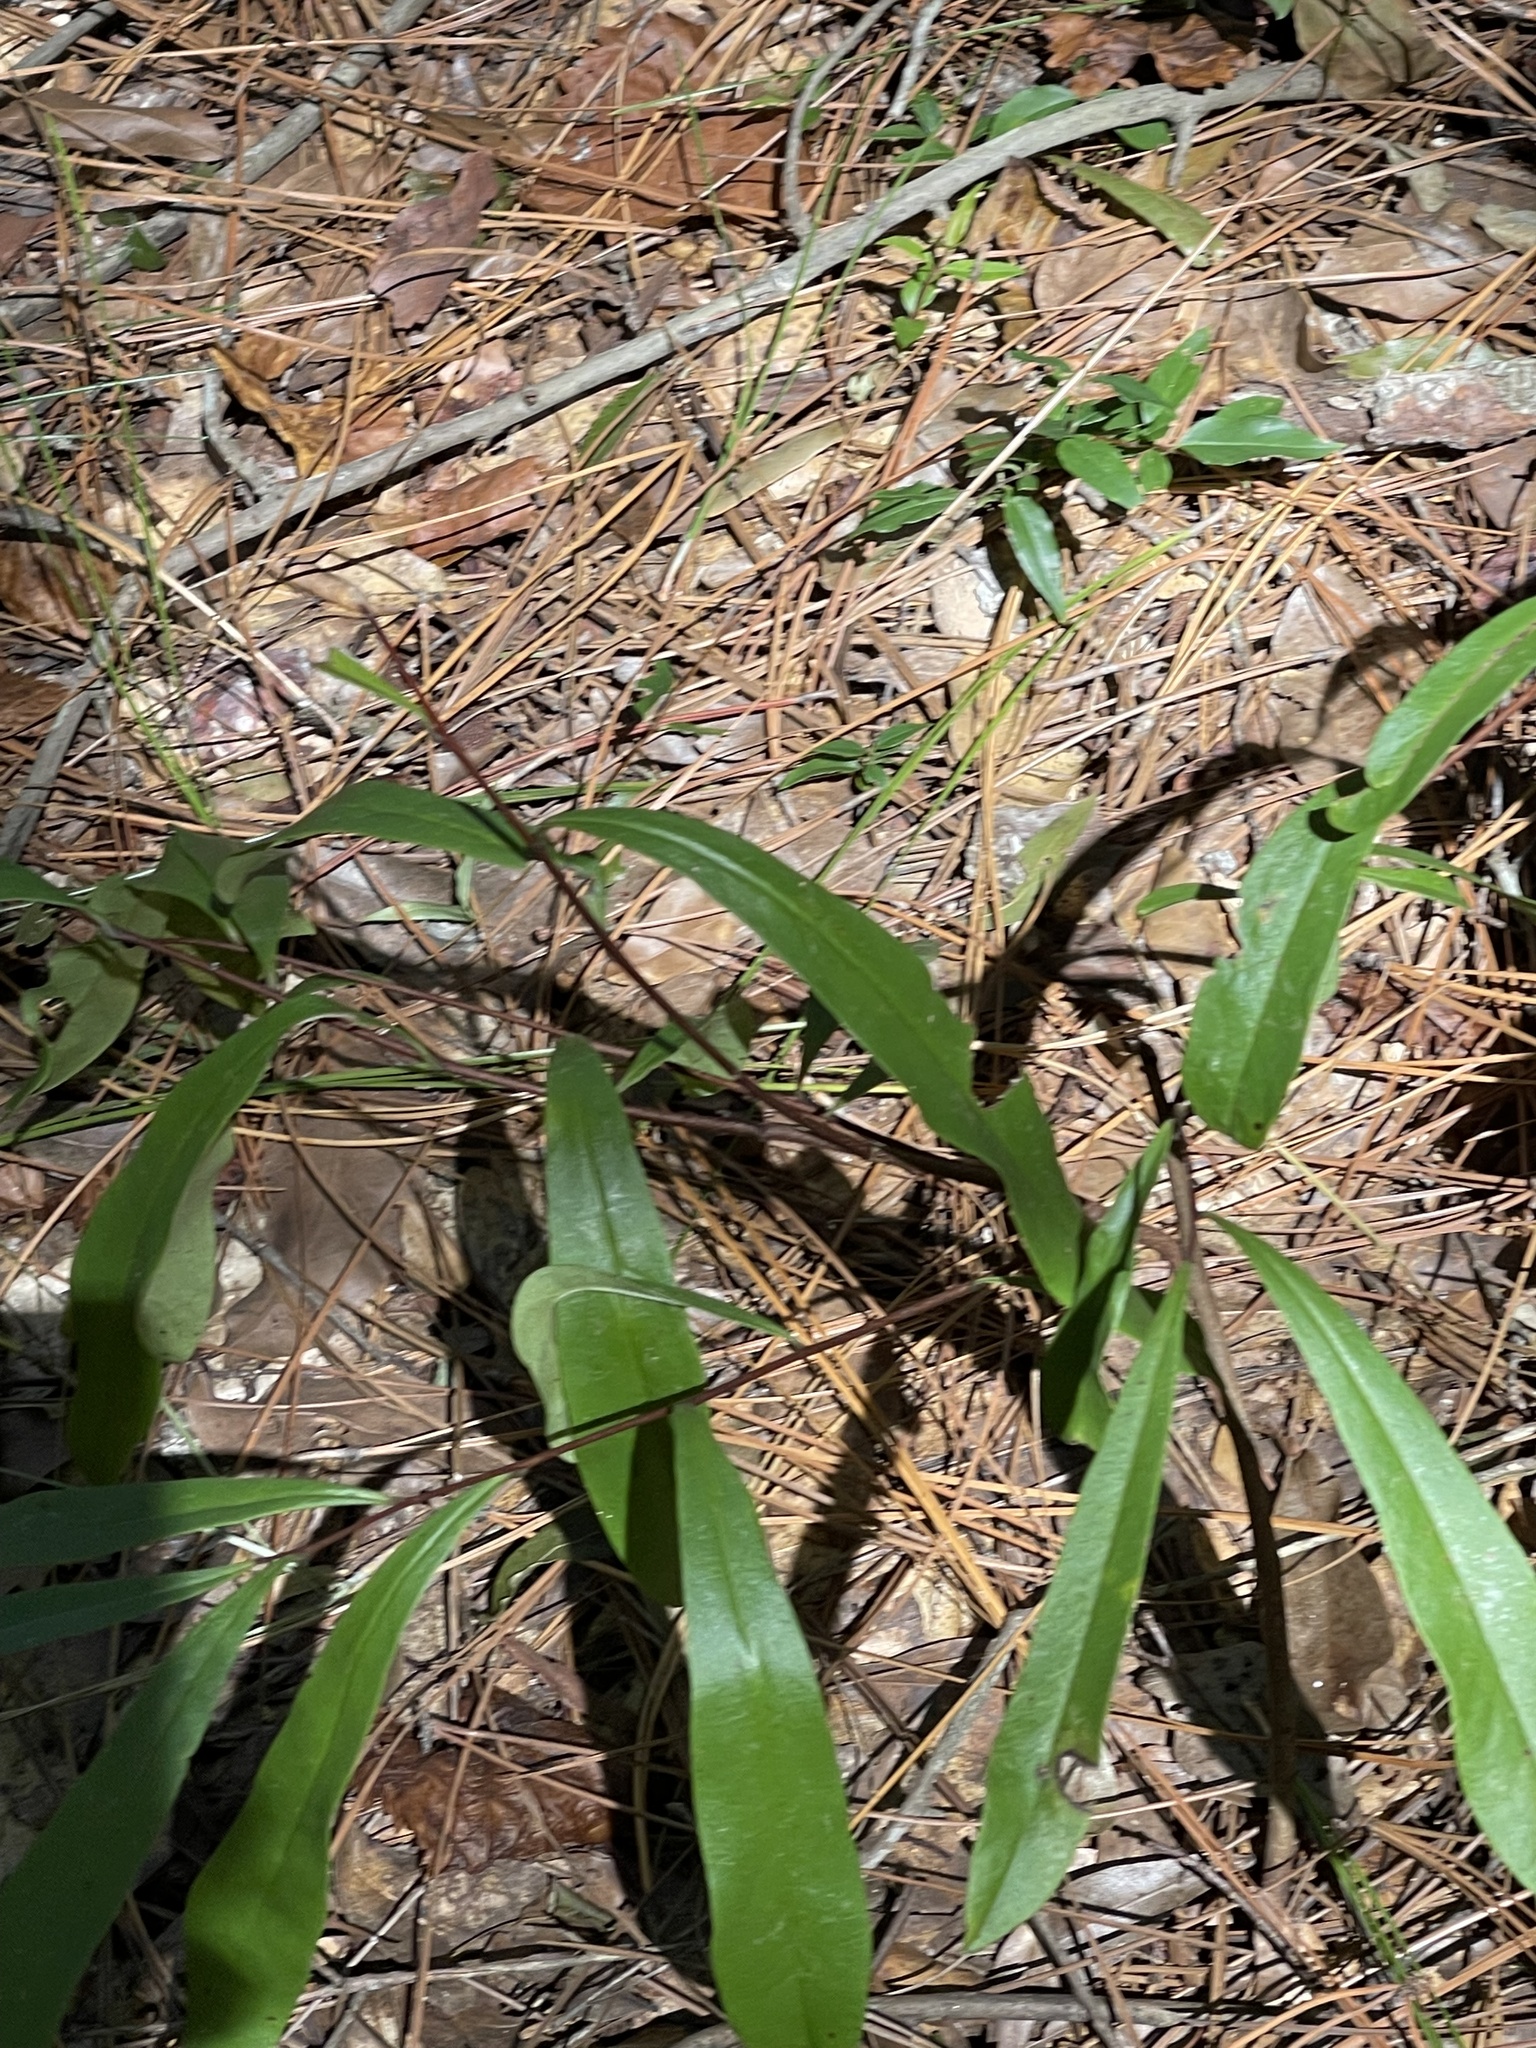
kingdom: Plantae
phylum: Tracheophyta
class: Magnoliopsida
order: Magnoliales
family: Annonaceae
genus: Asimina
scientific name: Asimina longifolia
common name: Polecatbush
